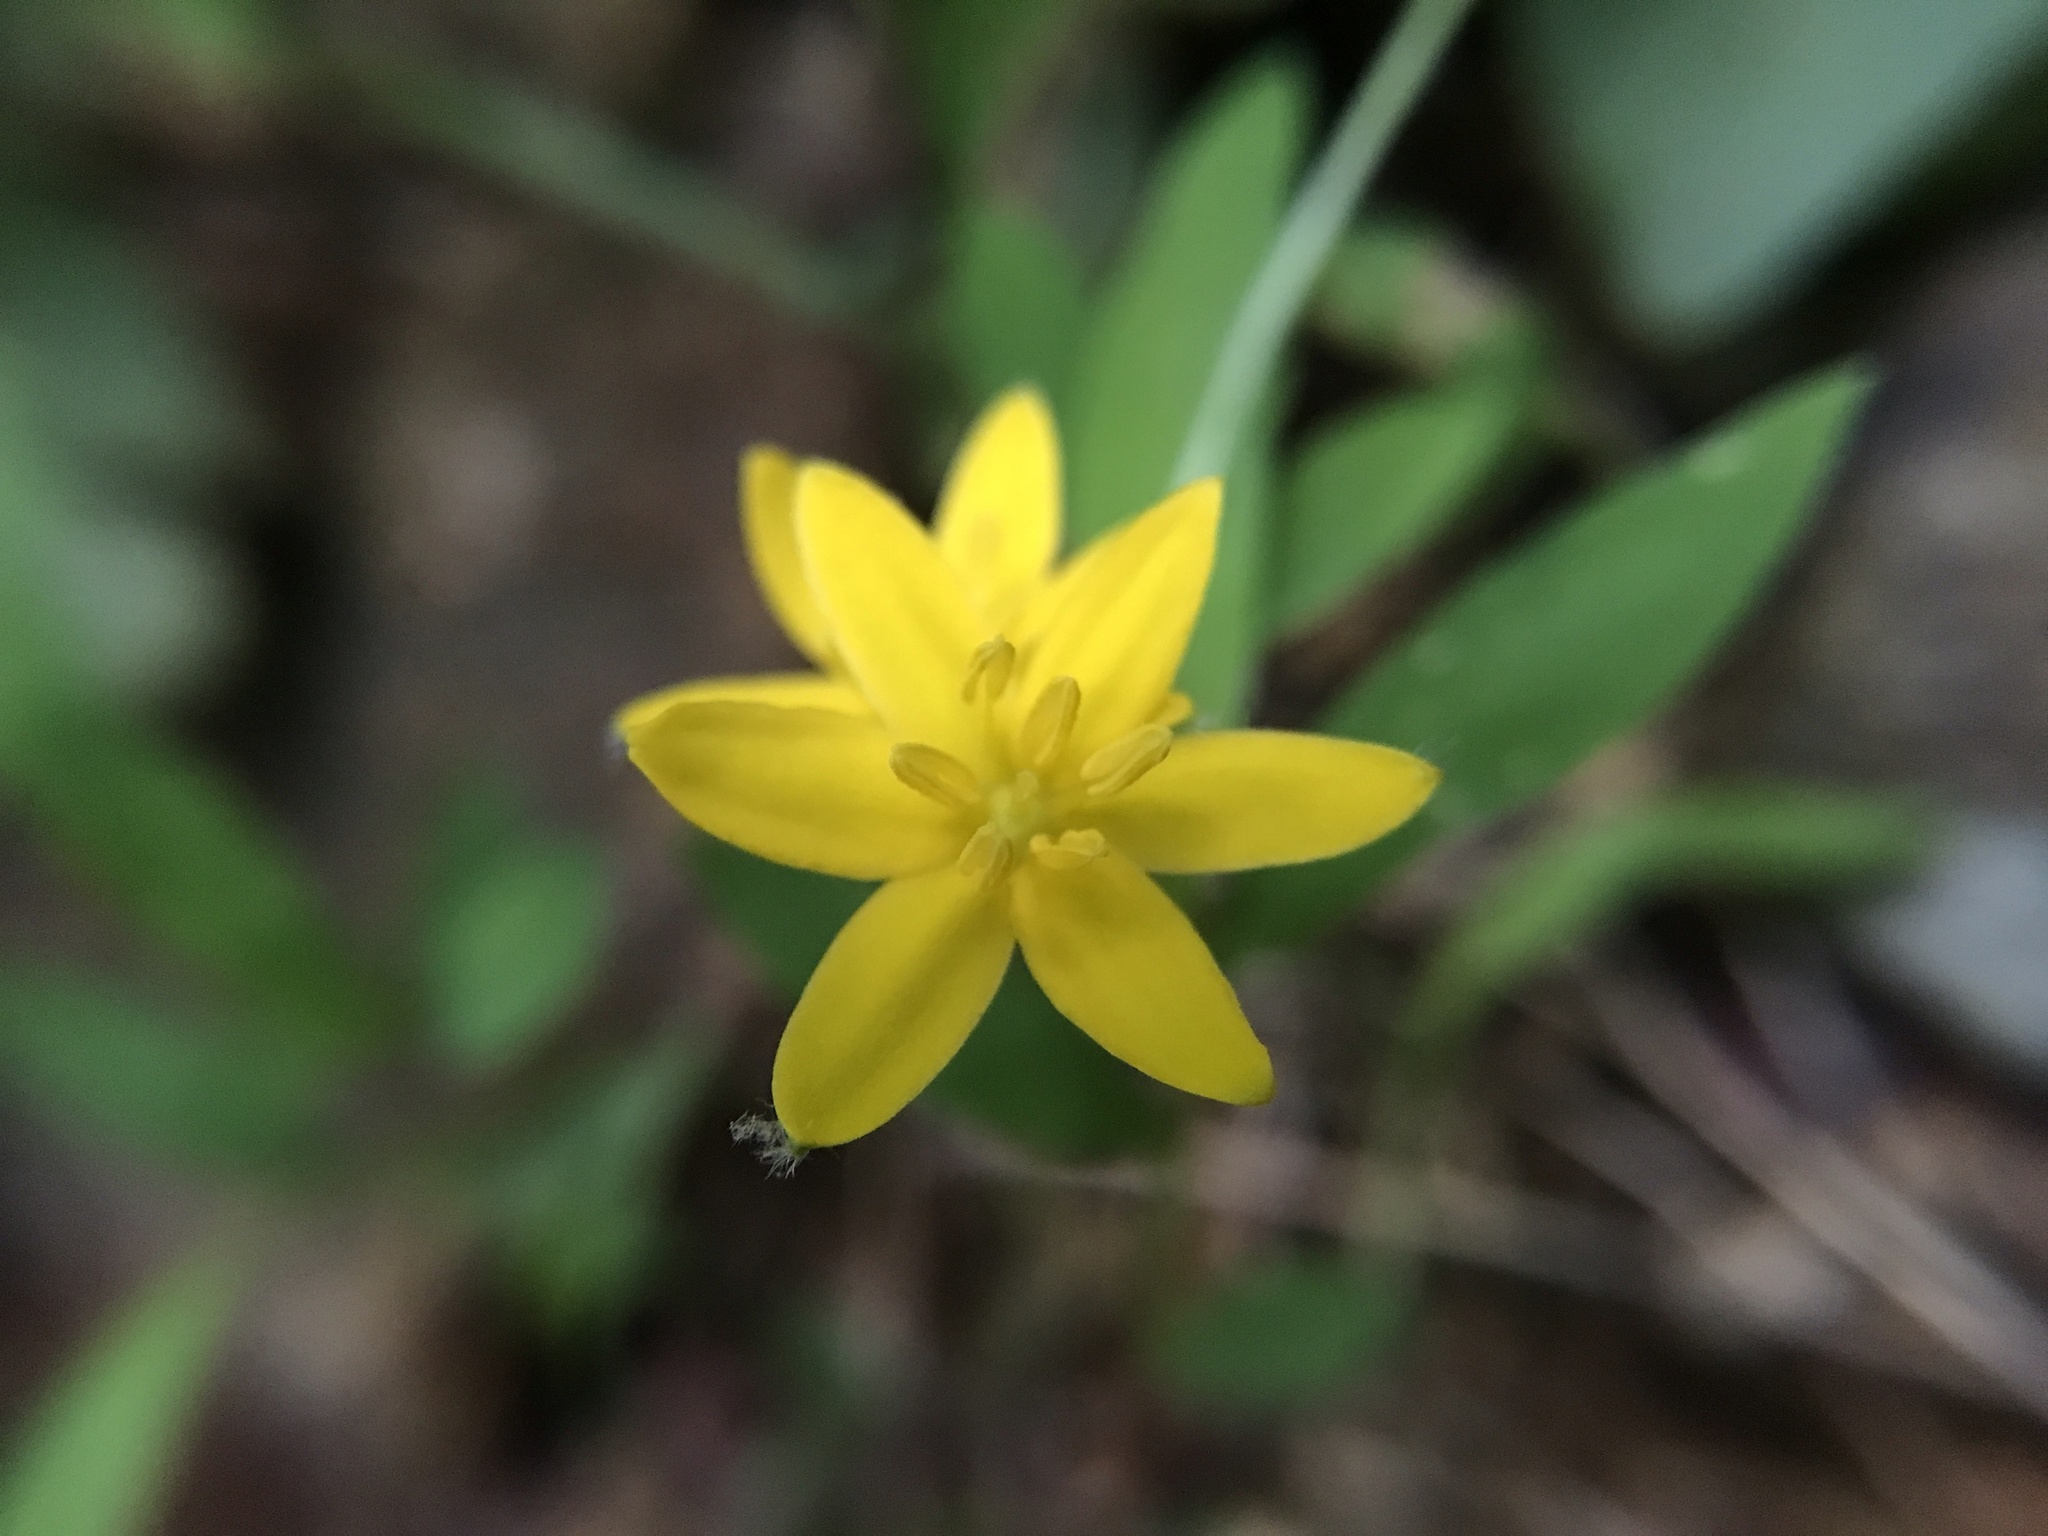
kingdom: Plantae
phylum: Tracheophyta
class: Liliopsida
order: Asparagales
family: Hypoxidaceae
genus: Hypoxis
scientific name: Hypoxis hirsuta
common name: Common goldstar
